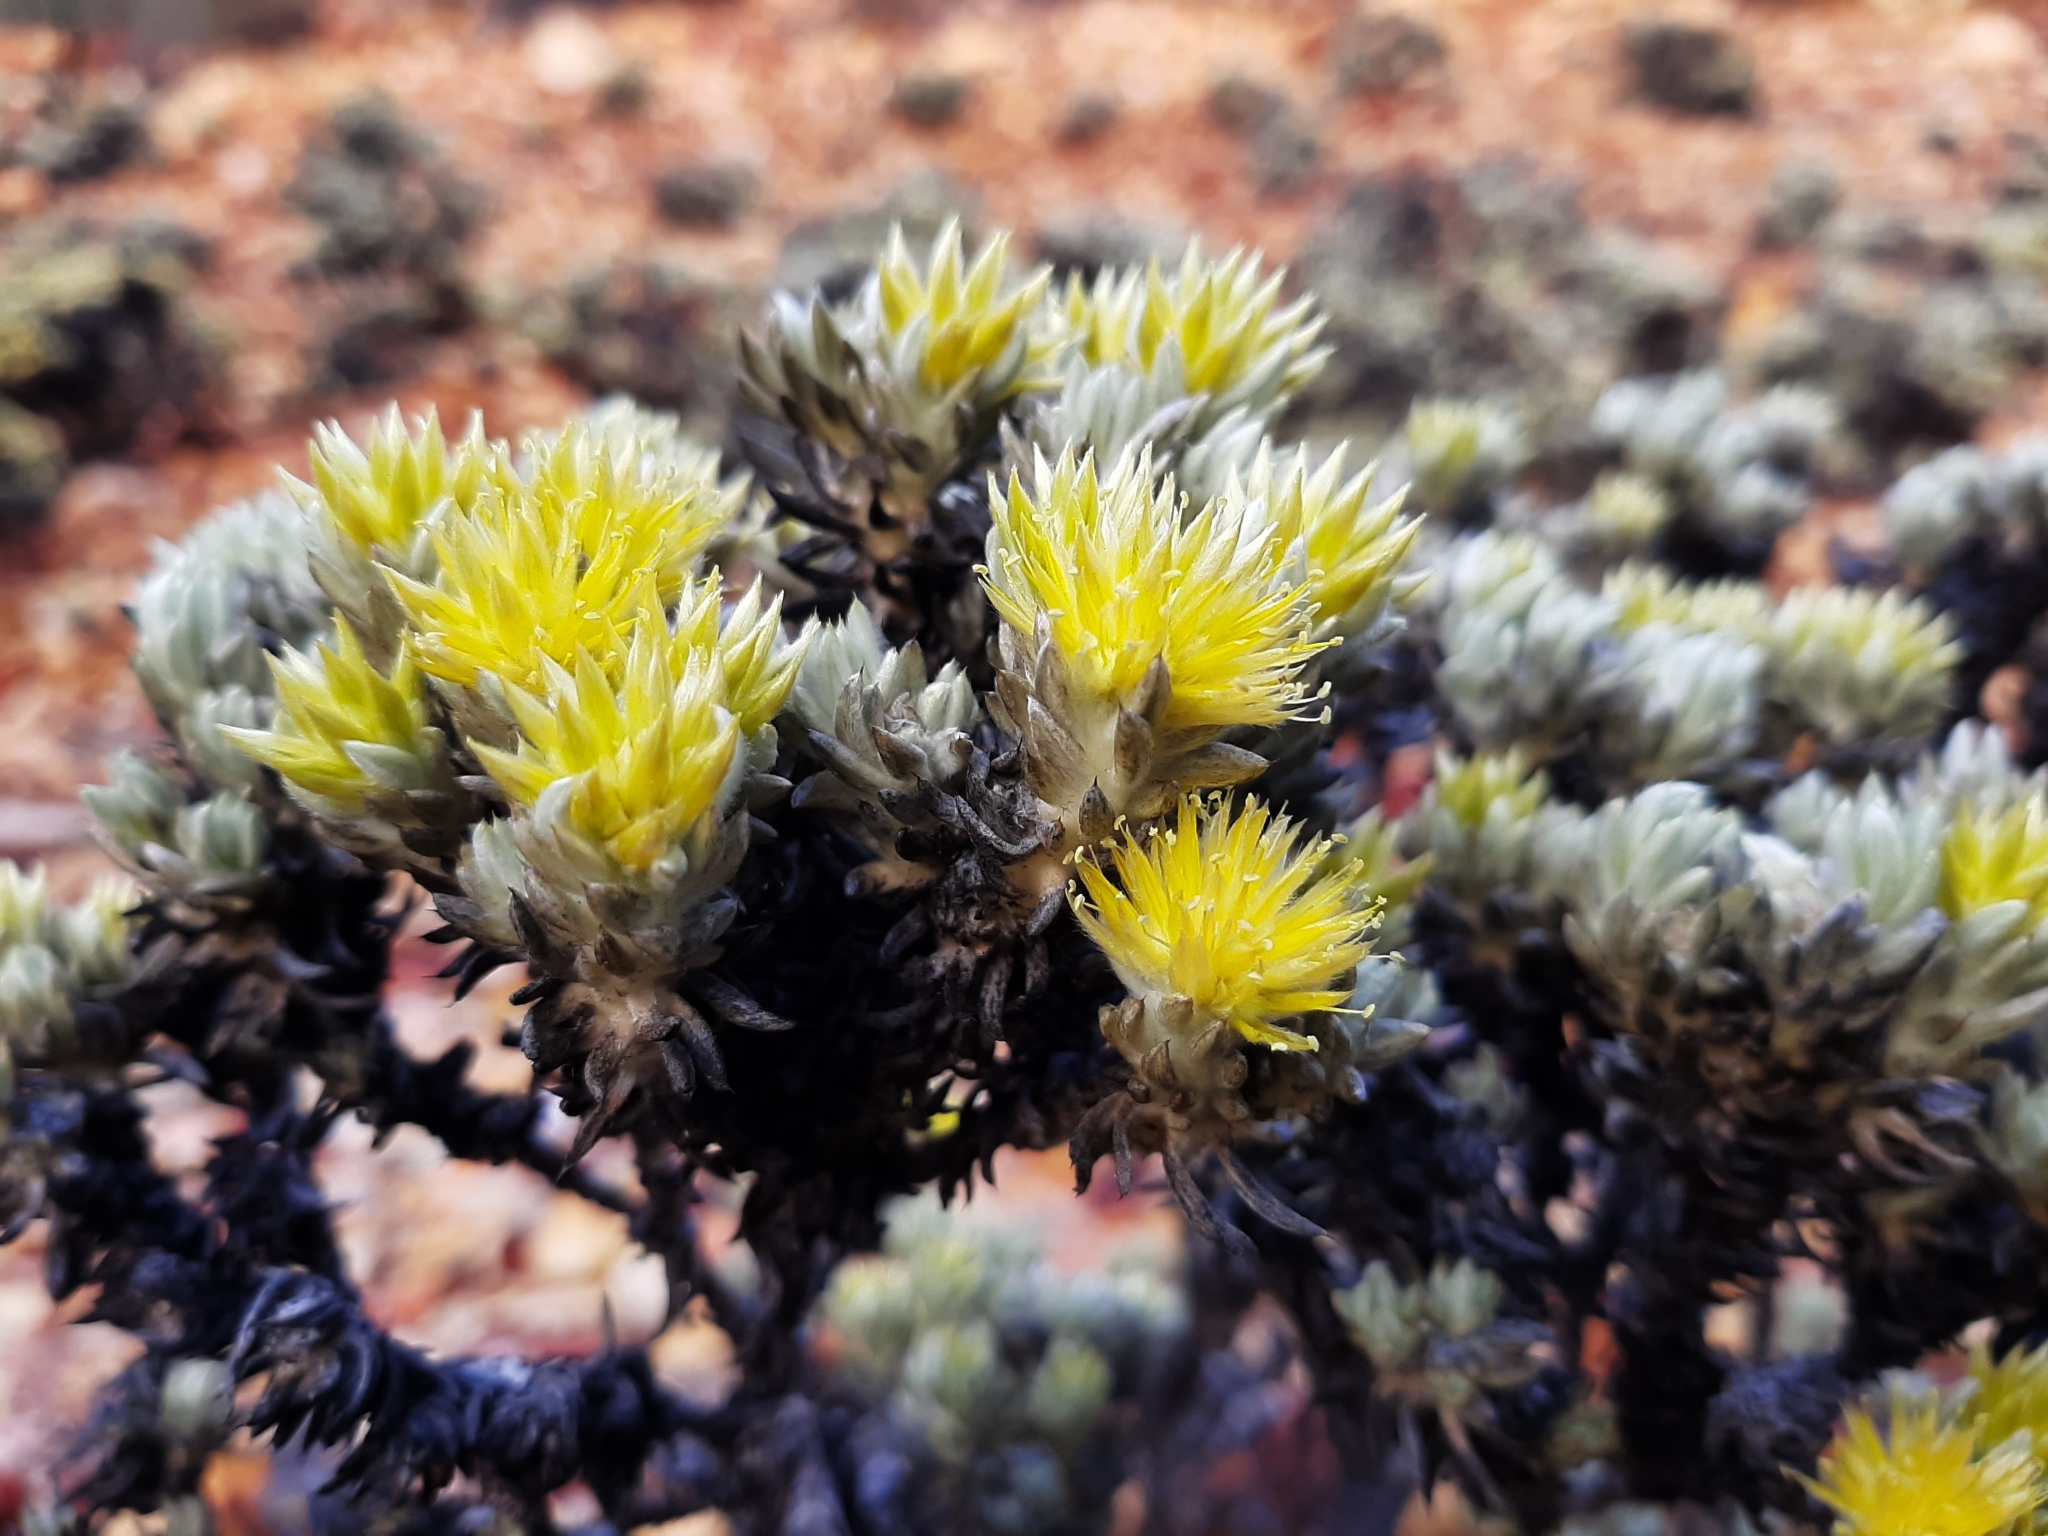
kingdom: Plantae
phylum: Tracheophyta
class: Magnoliopsida
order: Caryophyllales
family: Amaranthaceae
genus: Ptilotus
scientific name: Ptilotus helichrysoides
